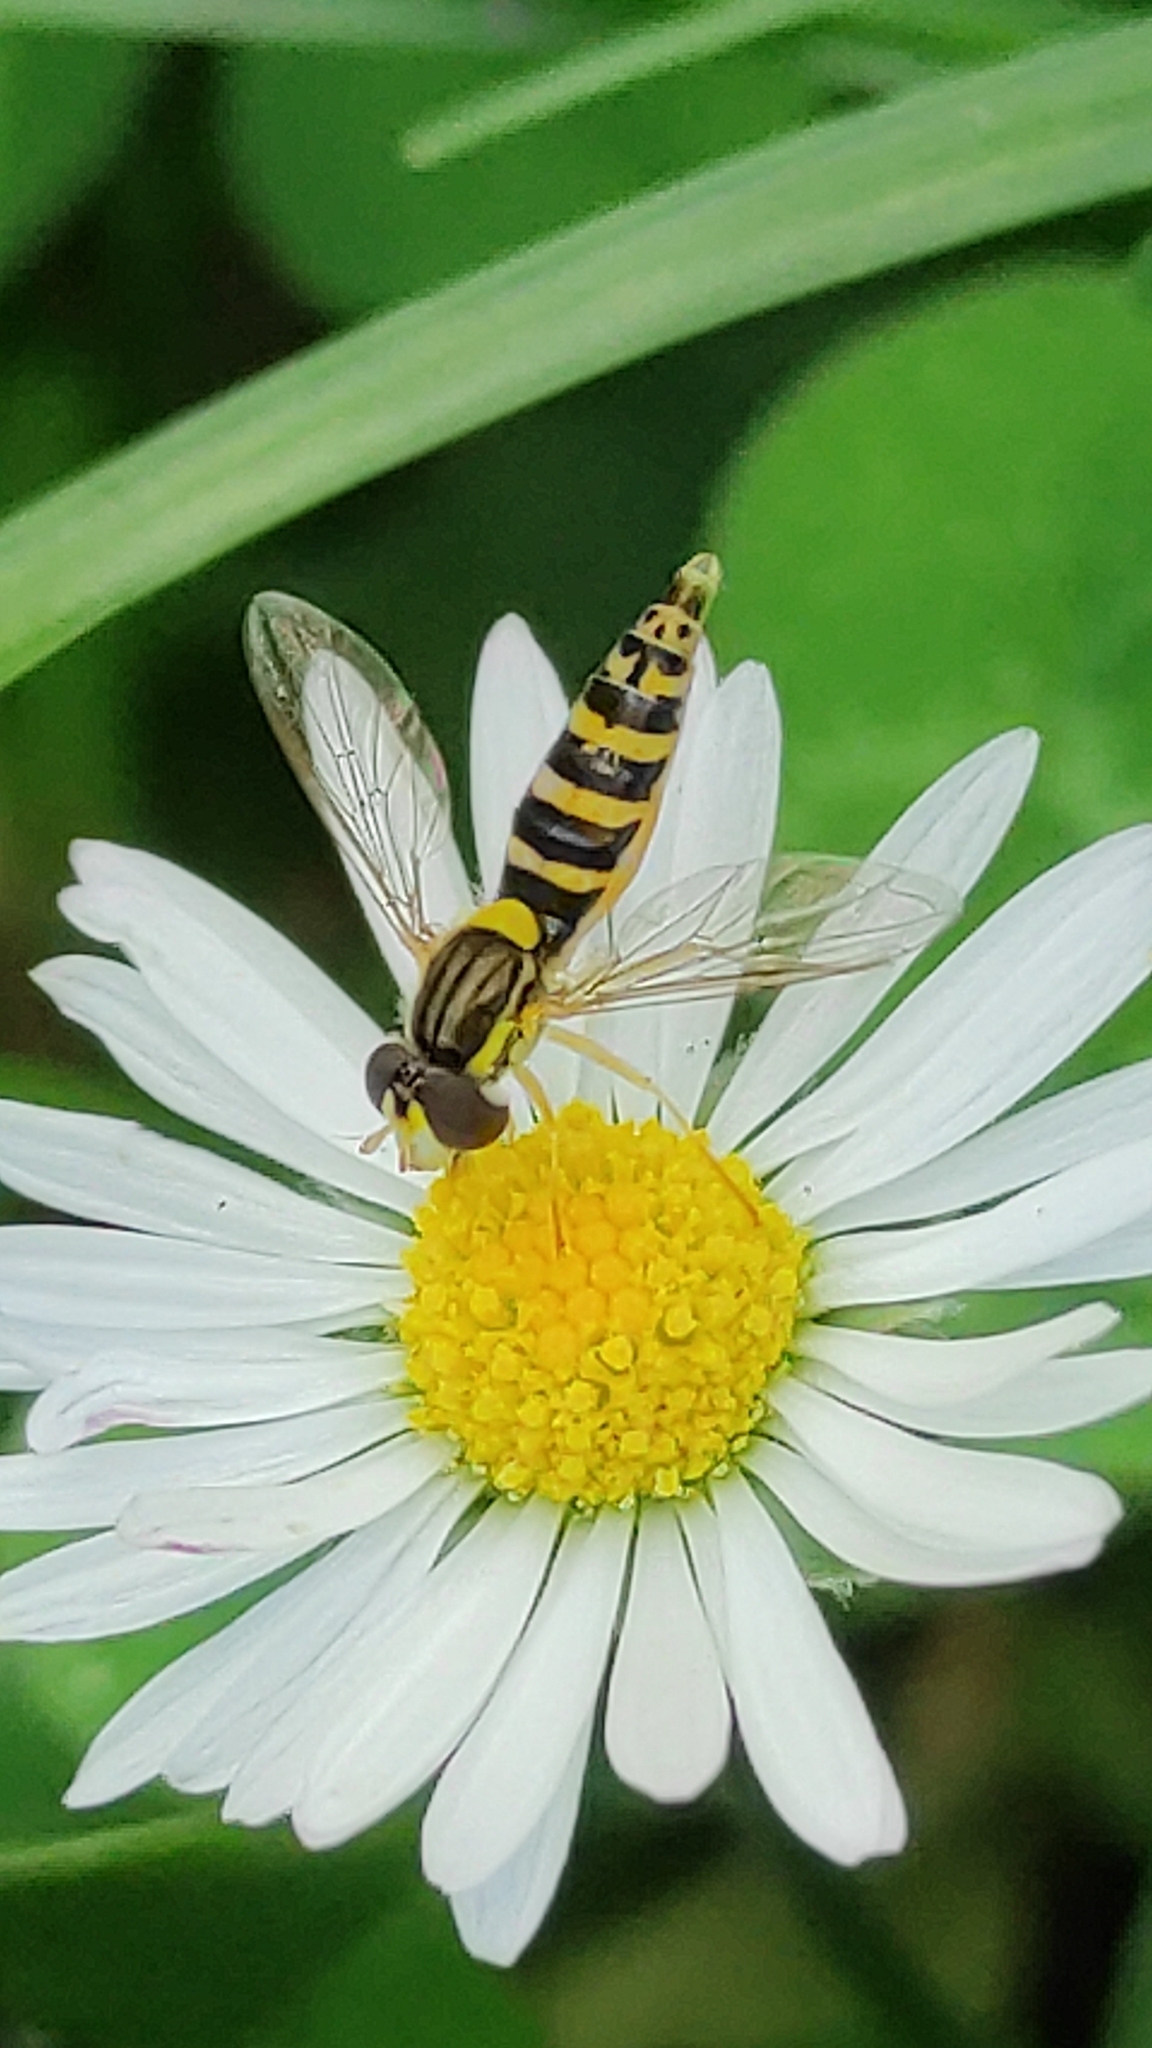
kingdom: Animalia
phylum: Arthropoda
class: Insecta
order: Diptera
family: Syrphidae
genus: Sphaerophoria
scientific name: Sphaerophoria
